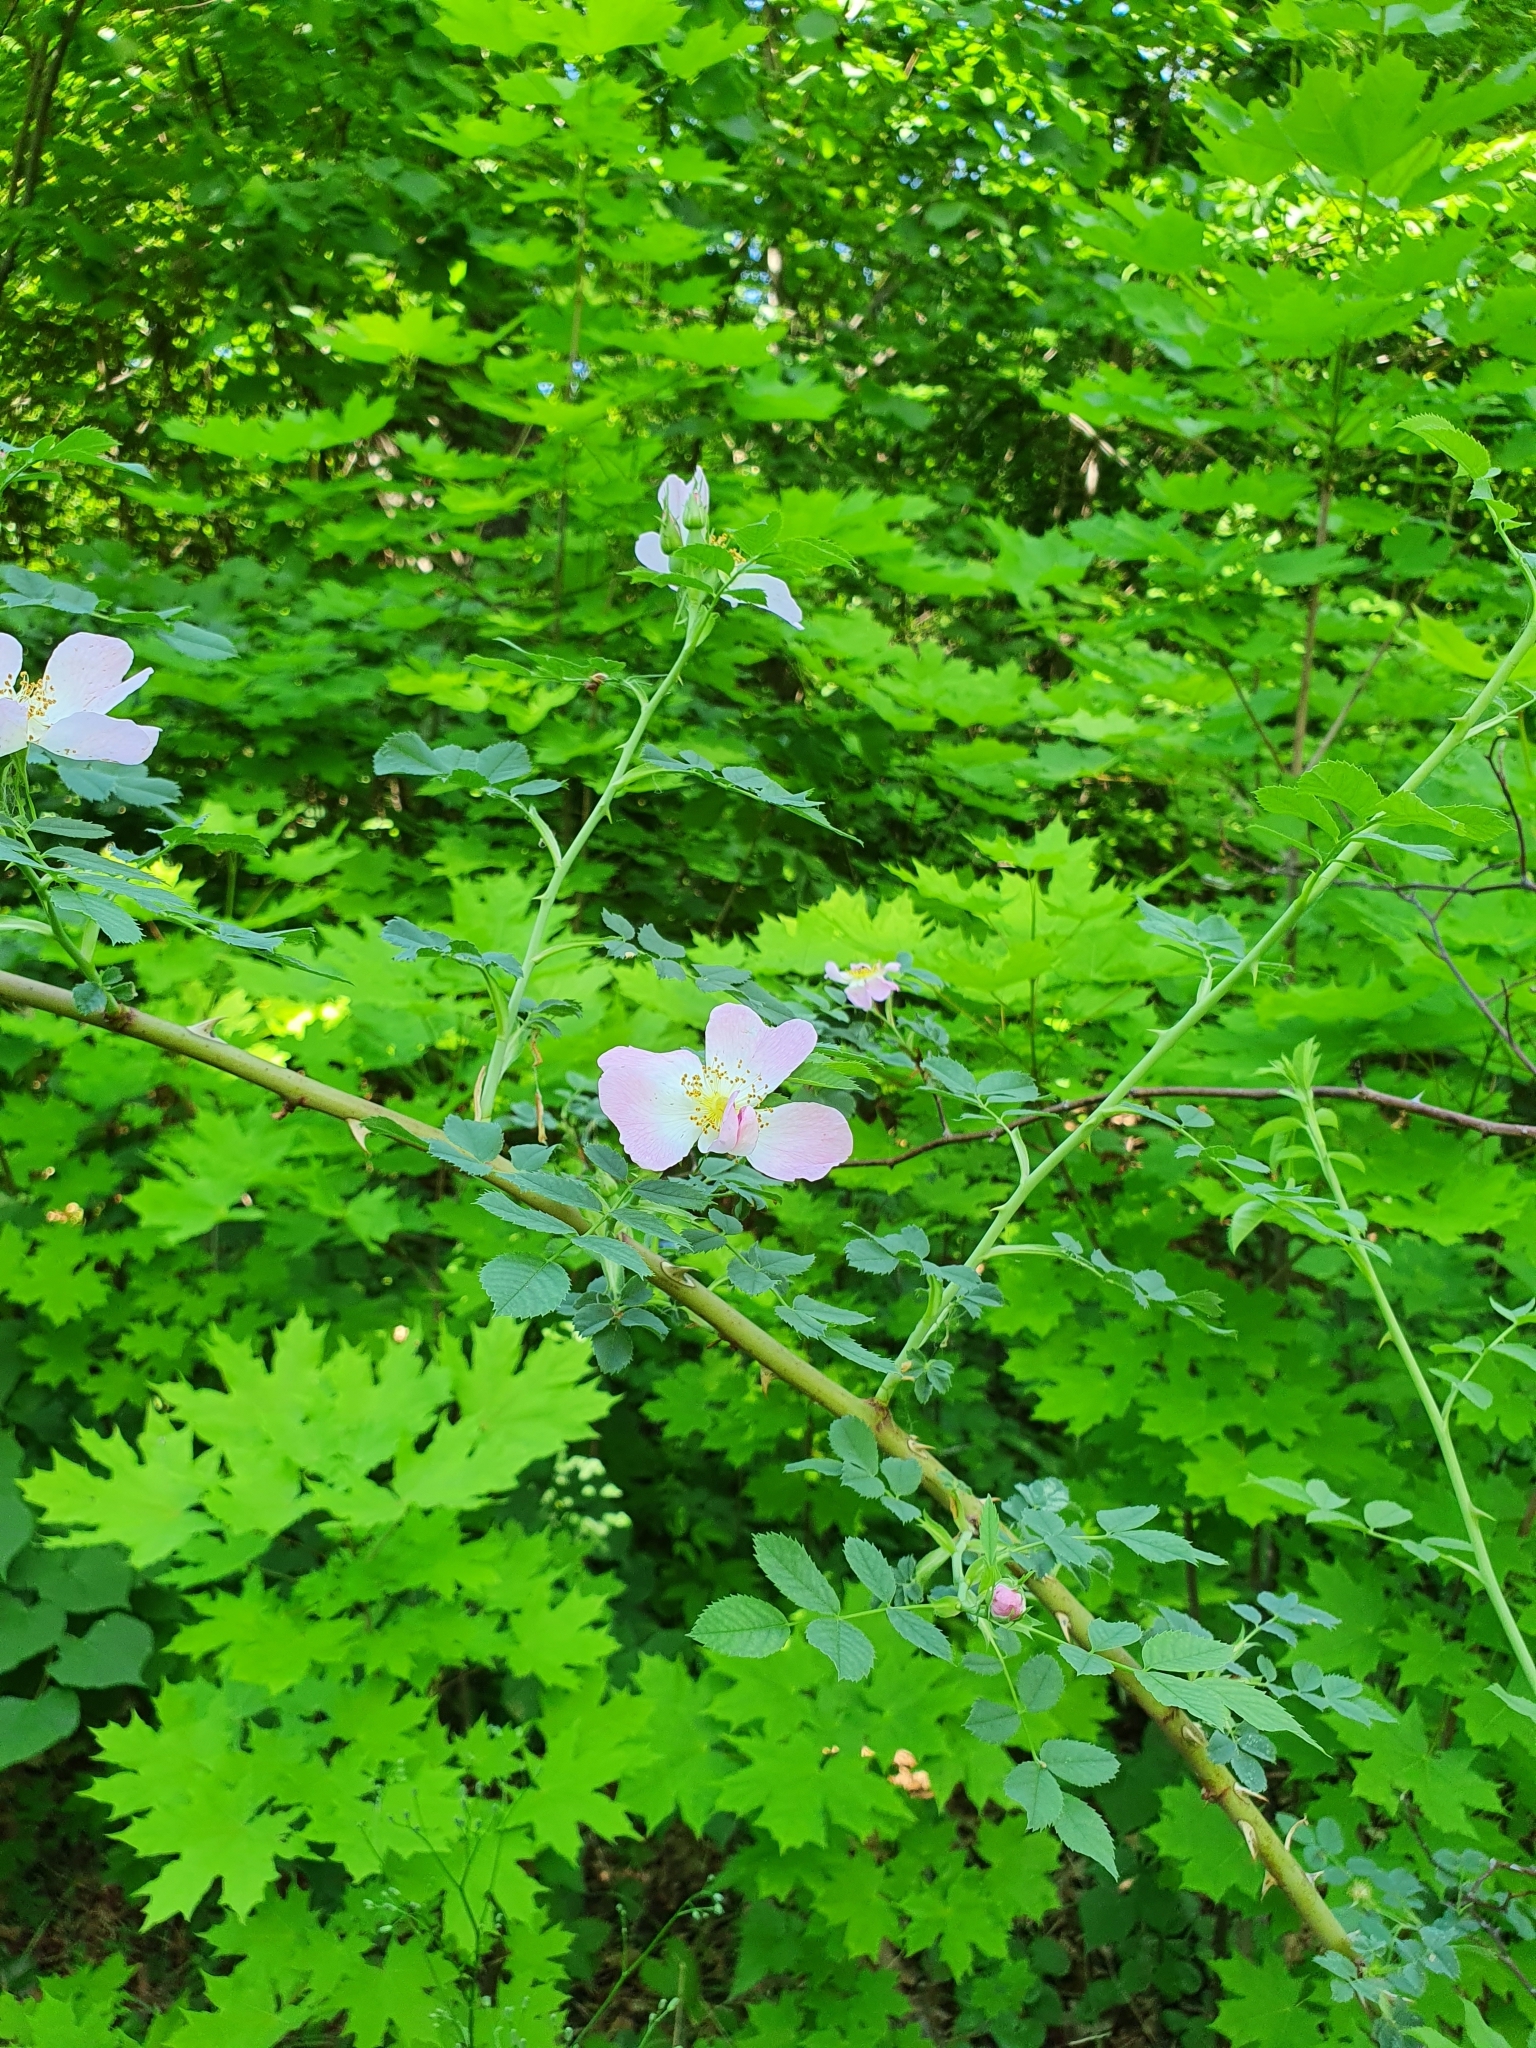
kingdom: Plantae
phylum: Tracheophyta
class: Magnoliopsida
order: Rosales
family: Rosaceae
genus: Rosa
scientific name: Rosa canina
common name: Dog rose
